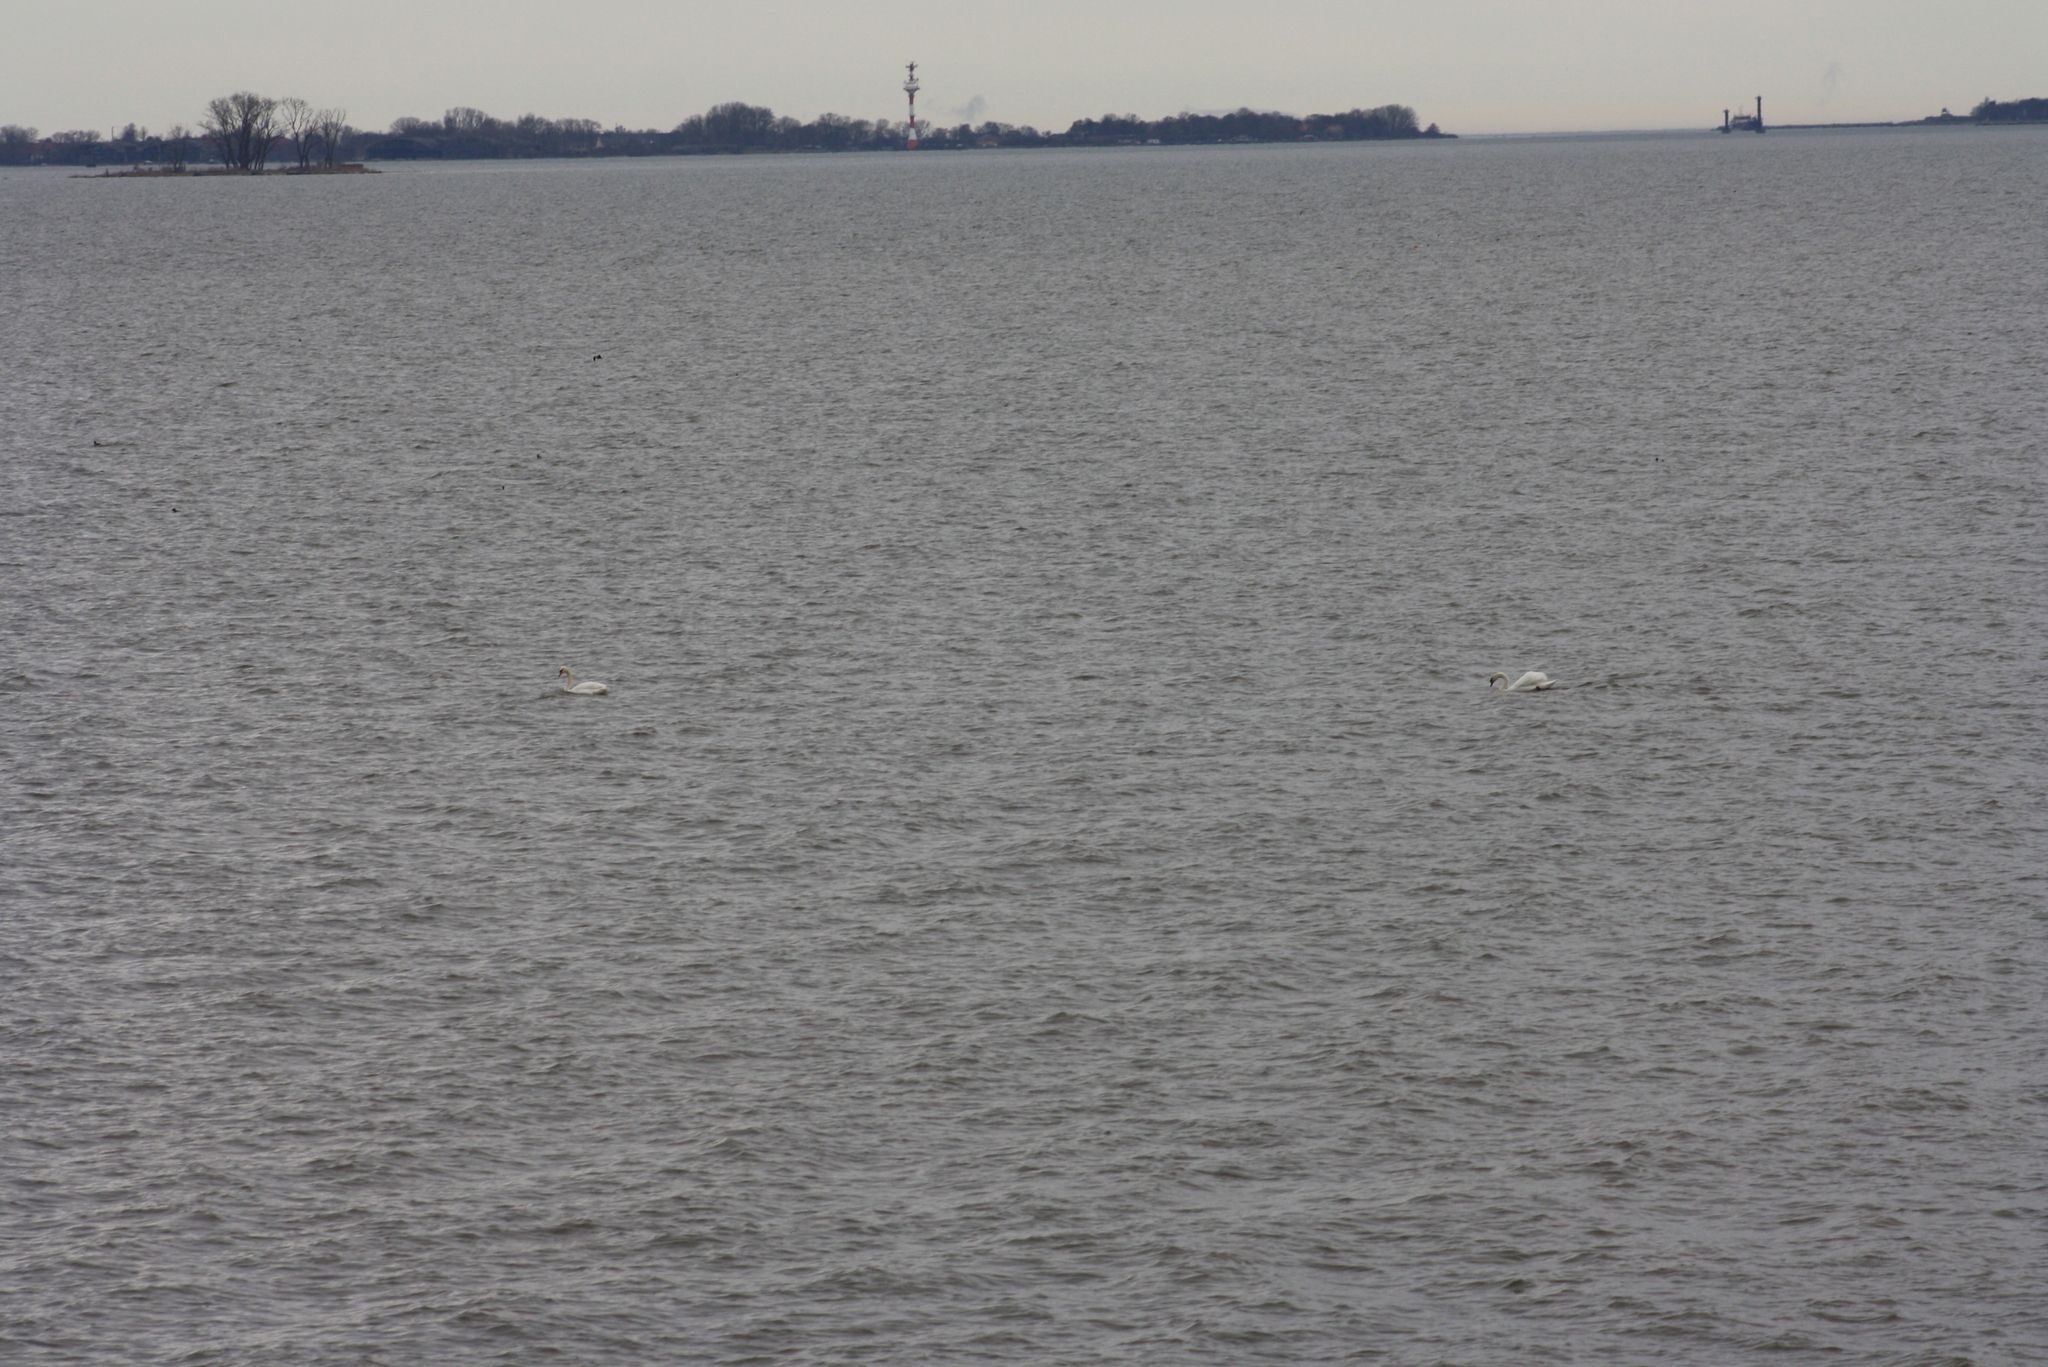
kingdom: Animalia
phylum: Chordata
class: Aves
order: Anseriformes
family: Anatidae
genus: Cygnus
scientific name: Cygnus olor
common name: Mute swan
